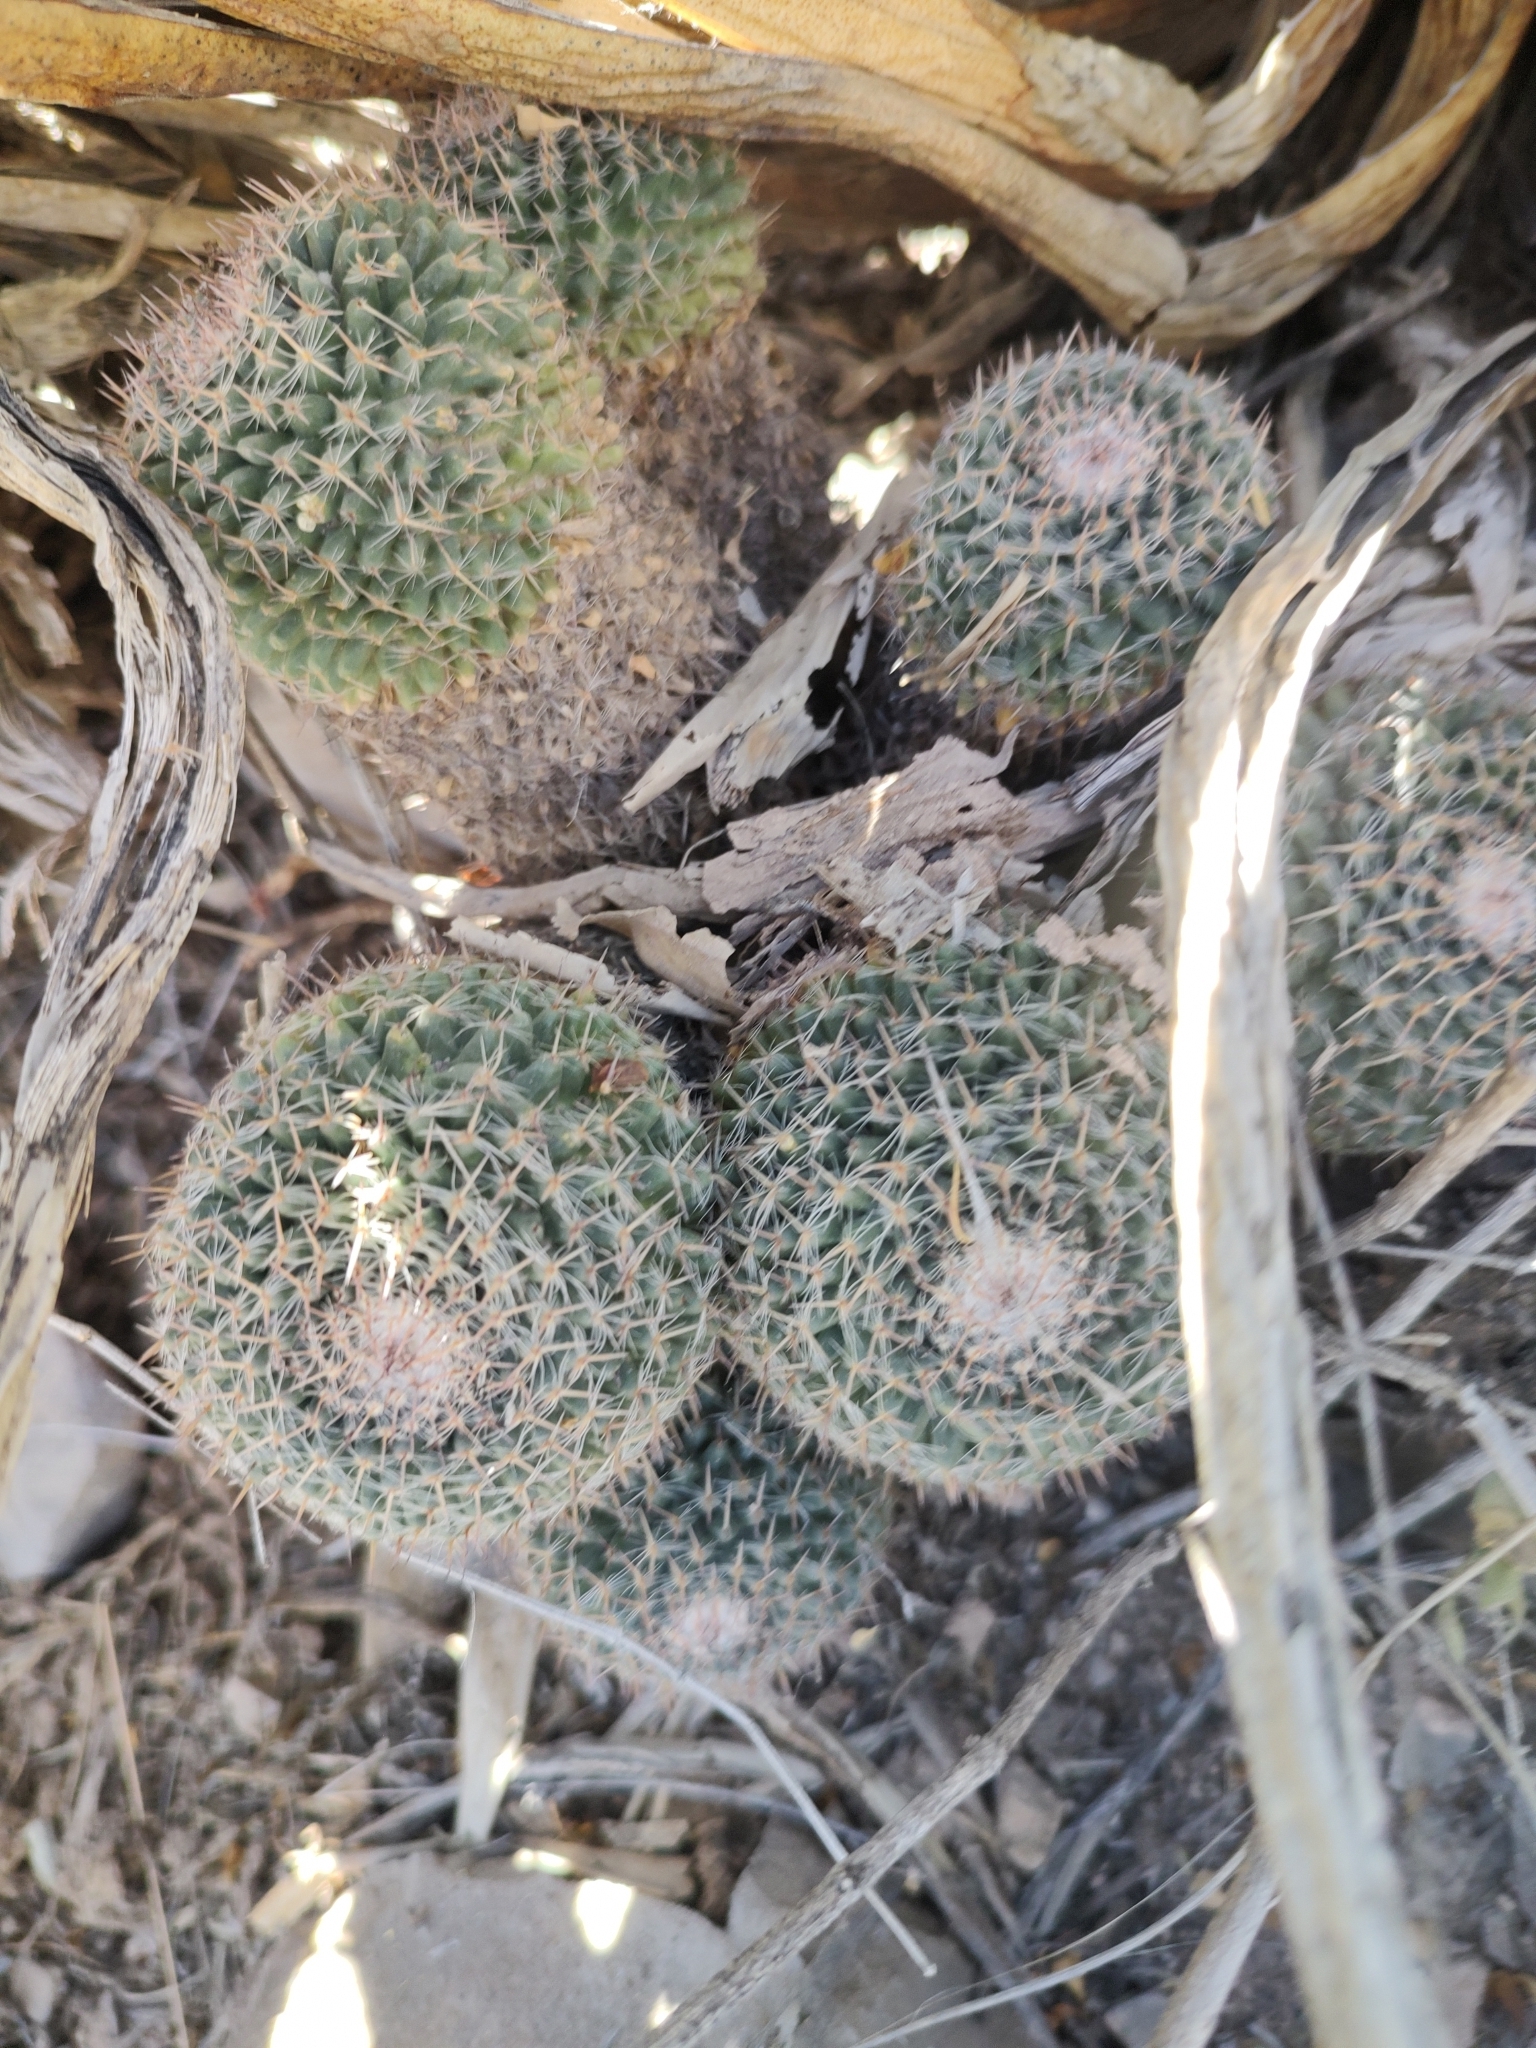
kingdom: Plantae
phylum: Tracheophyta
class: Magnoliopsida
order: Caryophyllales
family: Cactaceae
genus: Mammillaria
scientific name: Mammillaria formosa
